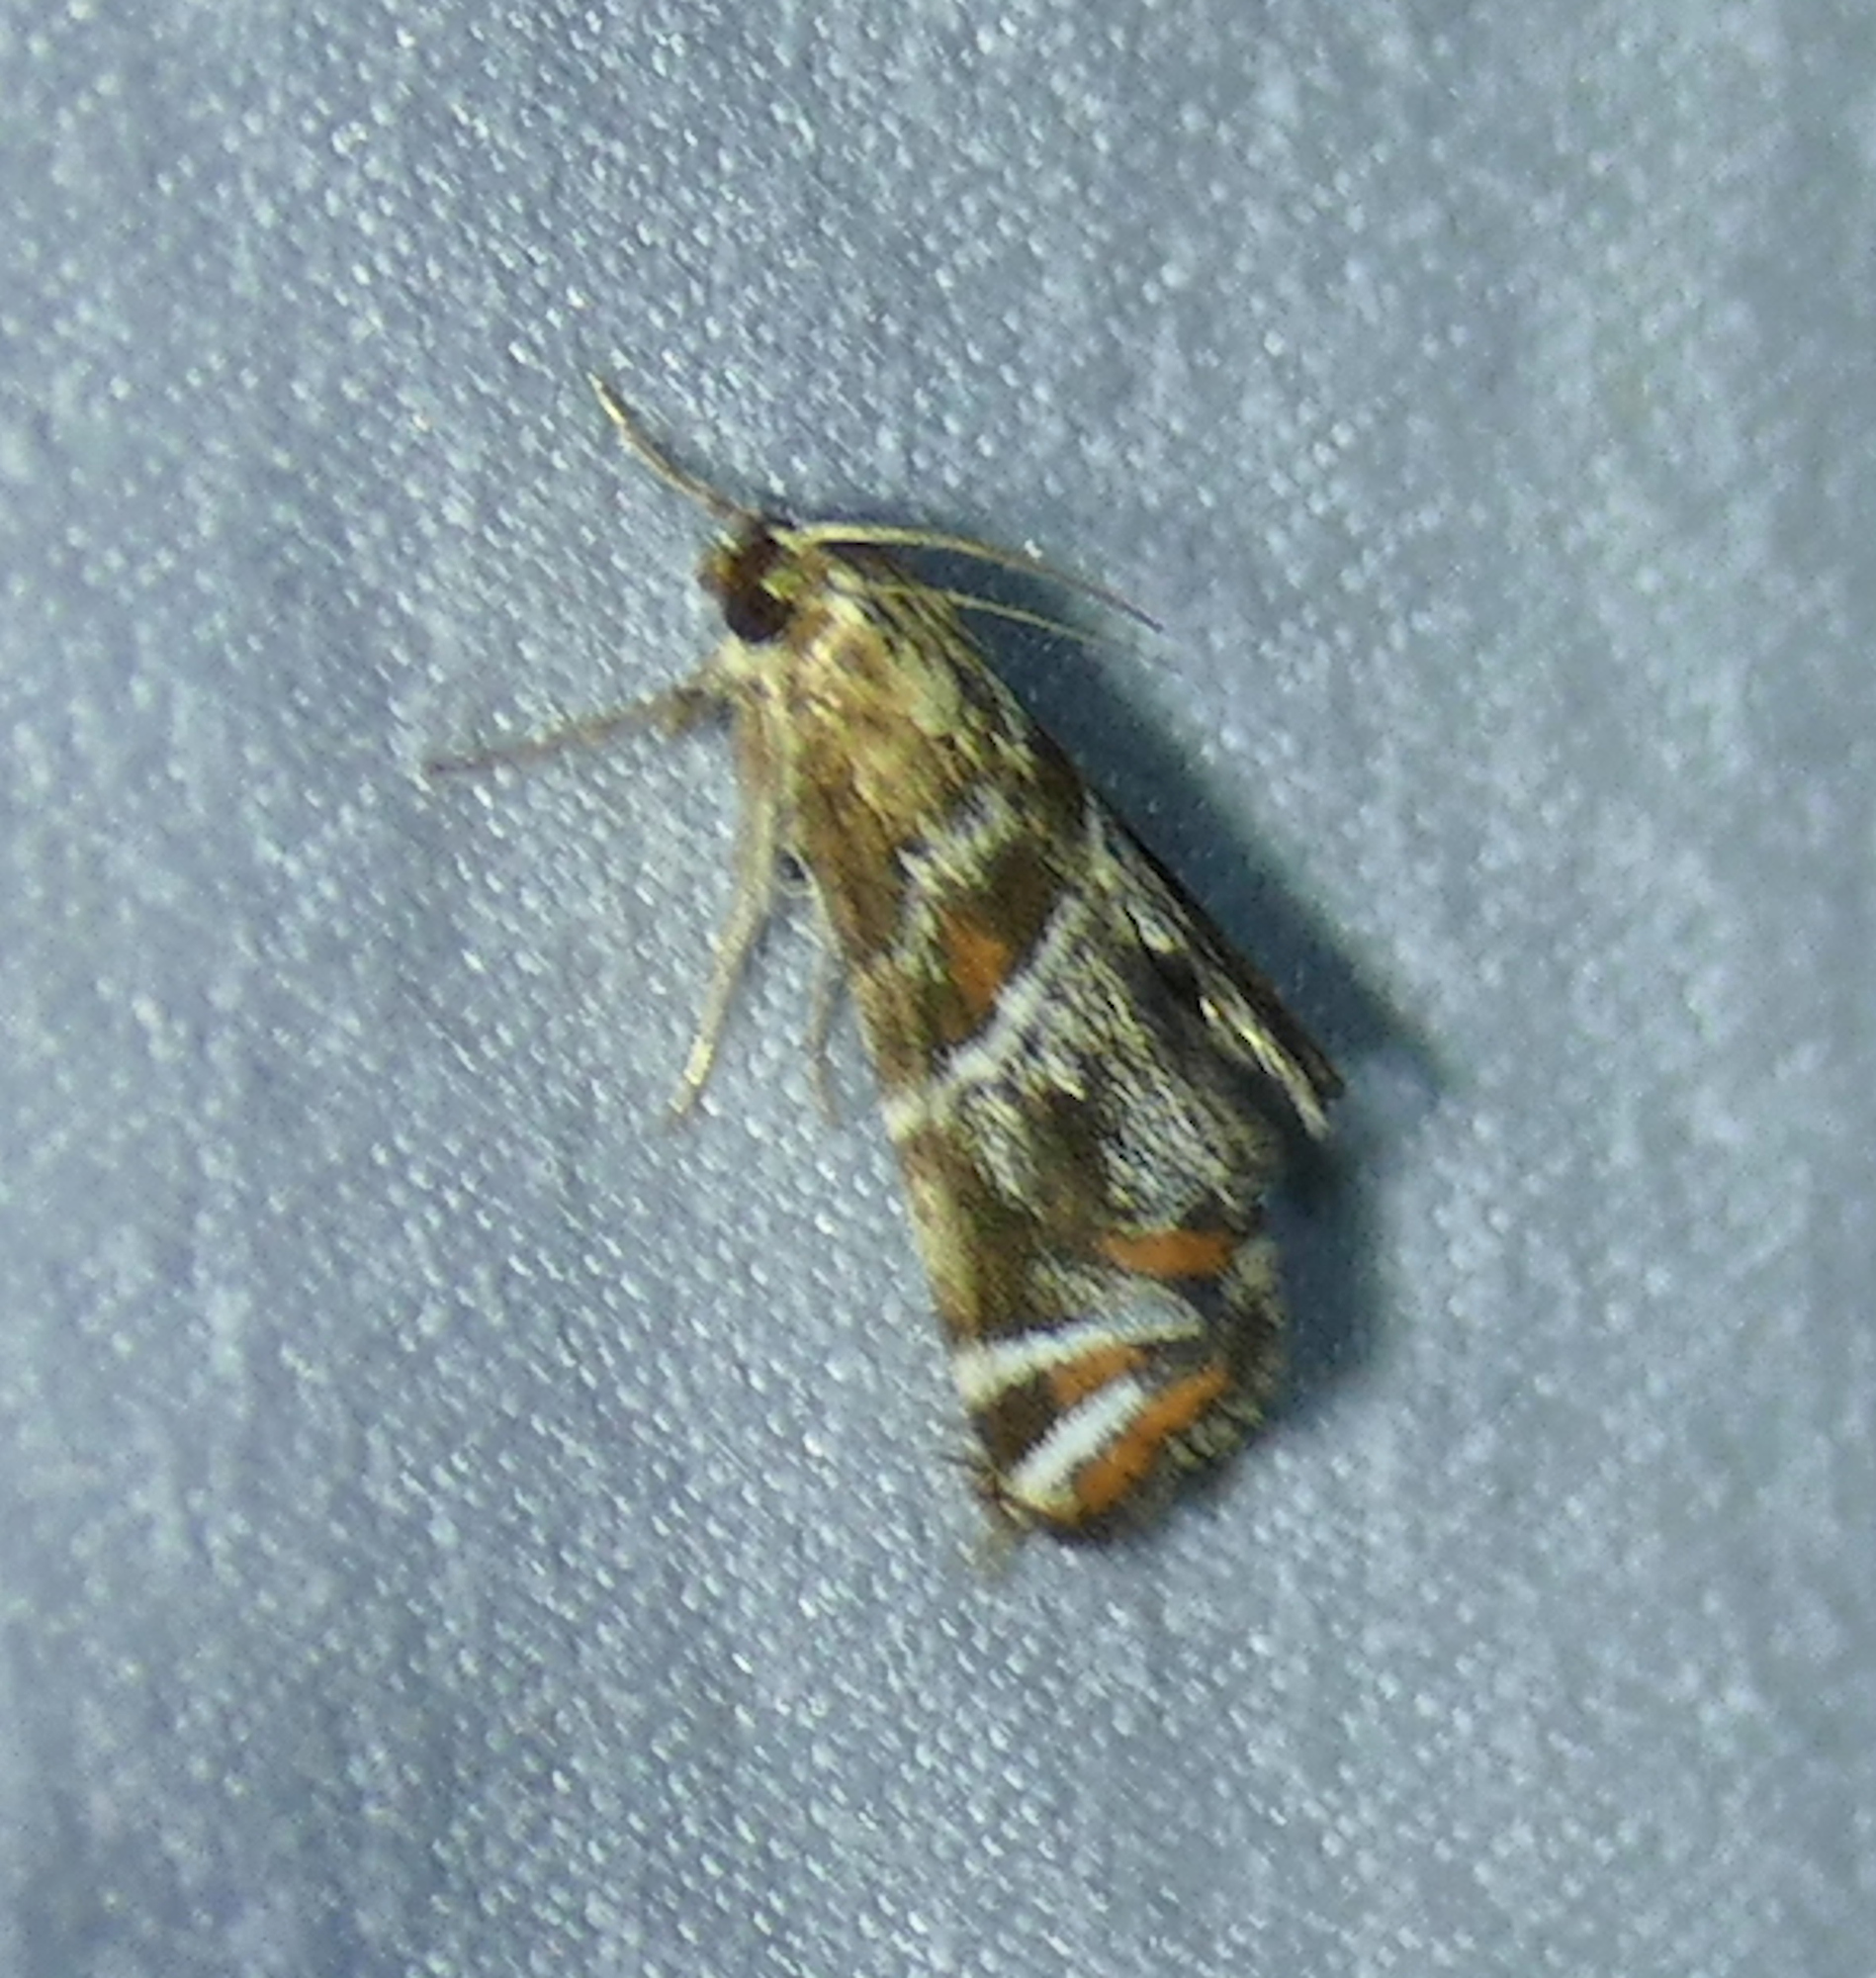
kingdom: Animalia
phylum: Arthropoda
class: Insecta
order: Lepidoptera
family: Crambidae
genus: Petrophila
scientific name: Petrophila jaliscalis
